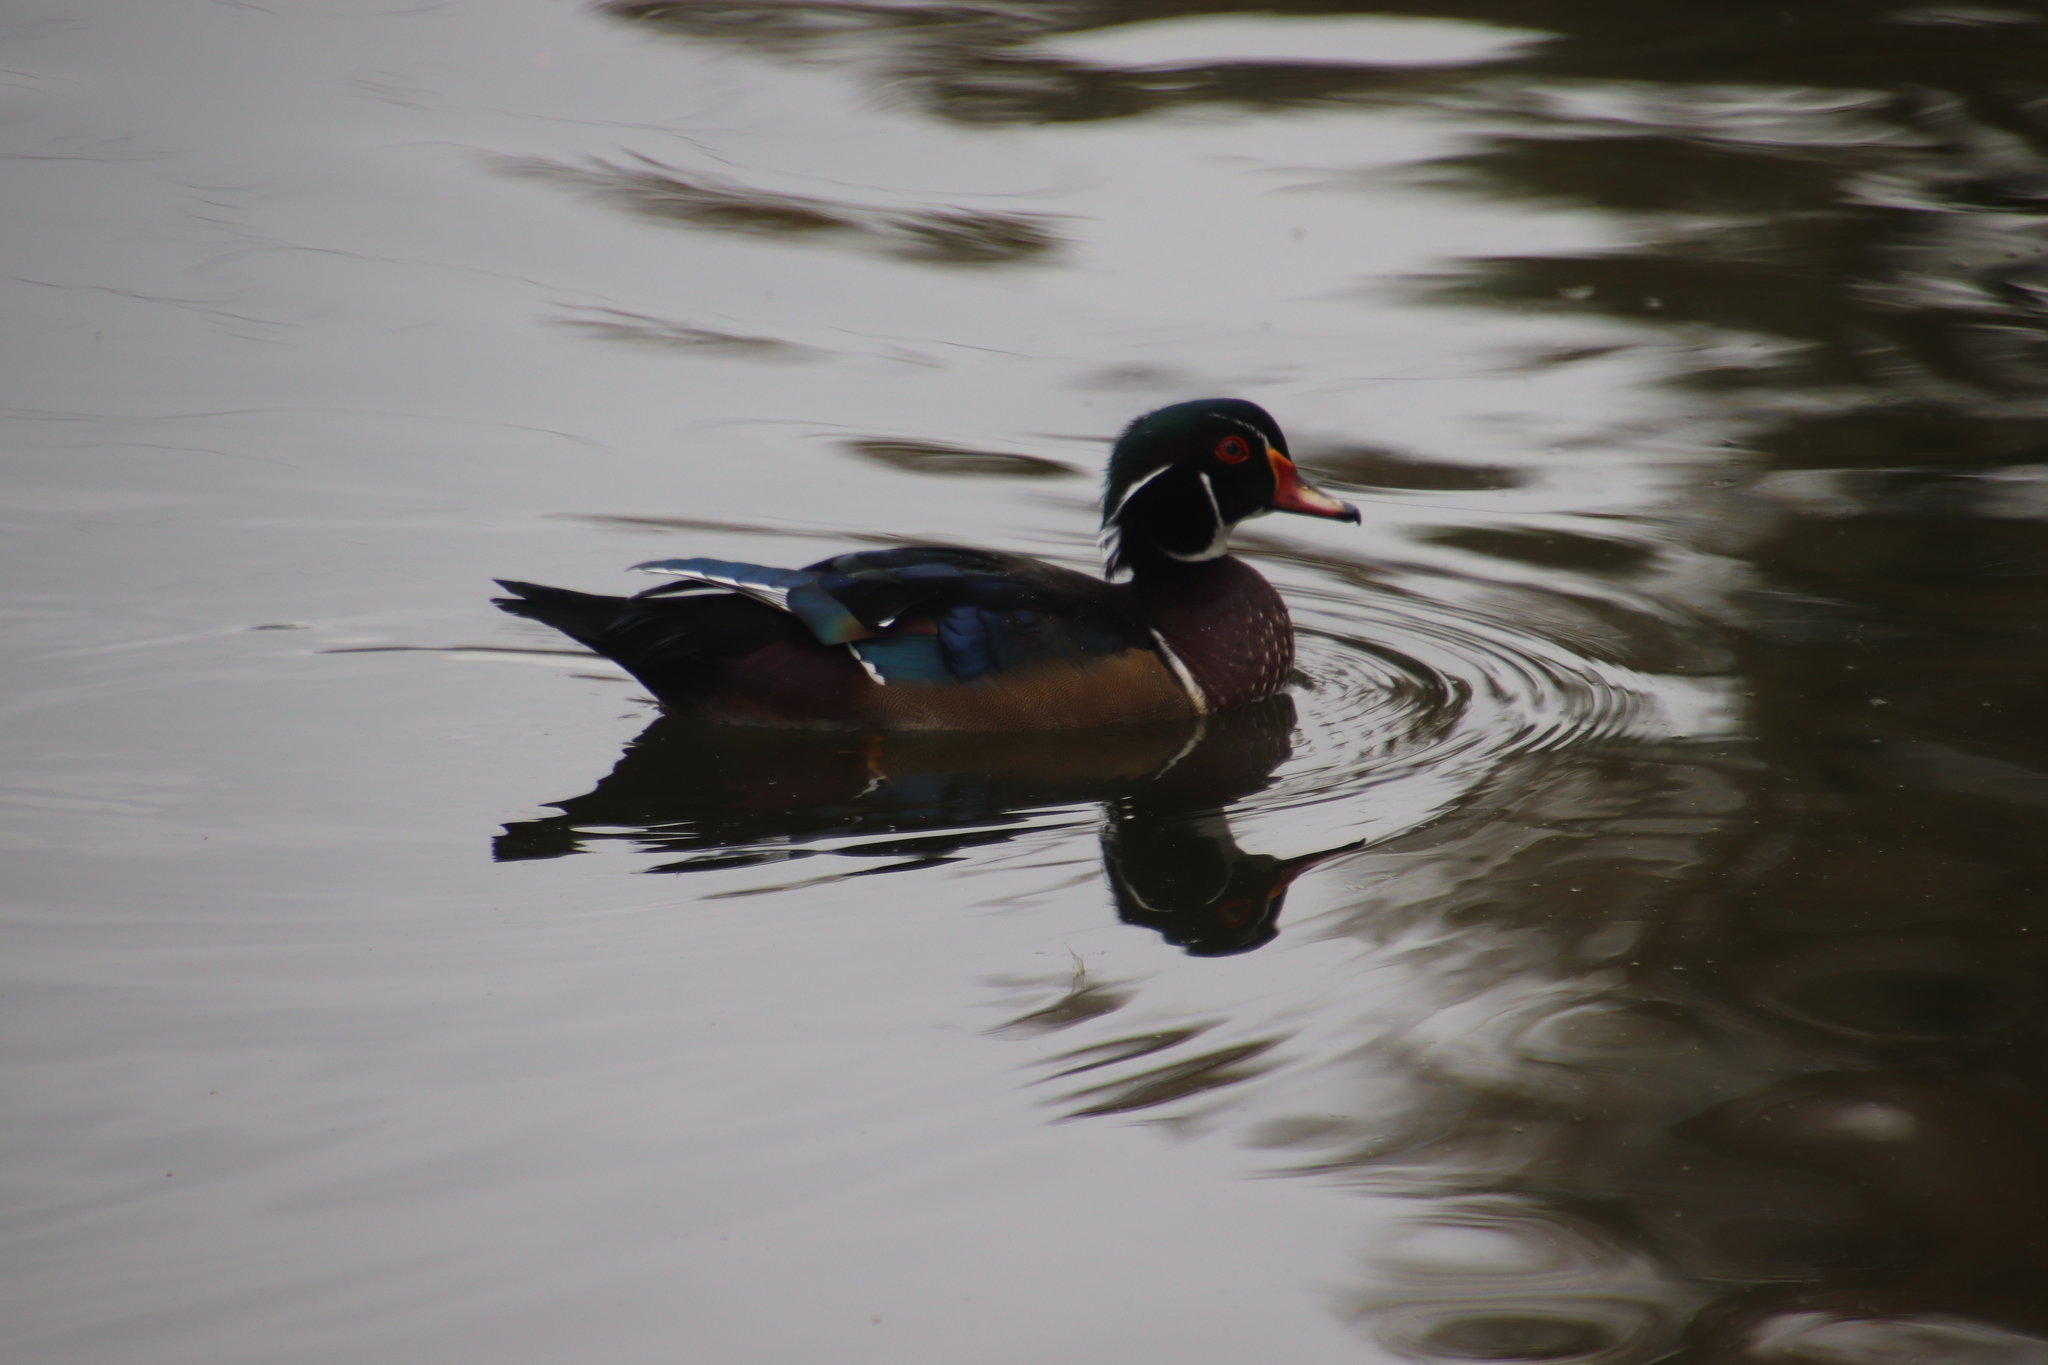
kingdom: Animalia
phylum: Chordata
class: Aves
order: Anseriformes
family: Anatidae
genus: Aix
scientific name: Aix sponsa
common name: Wood duck
